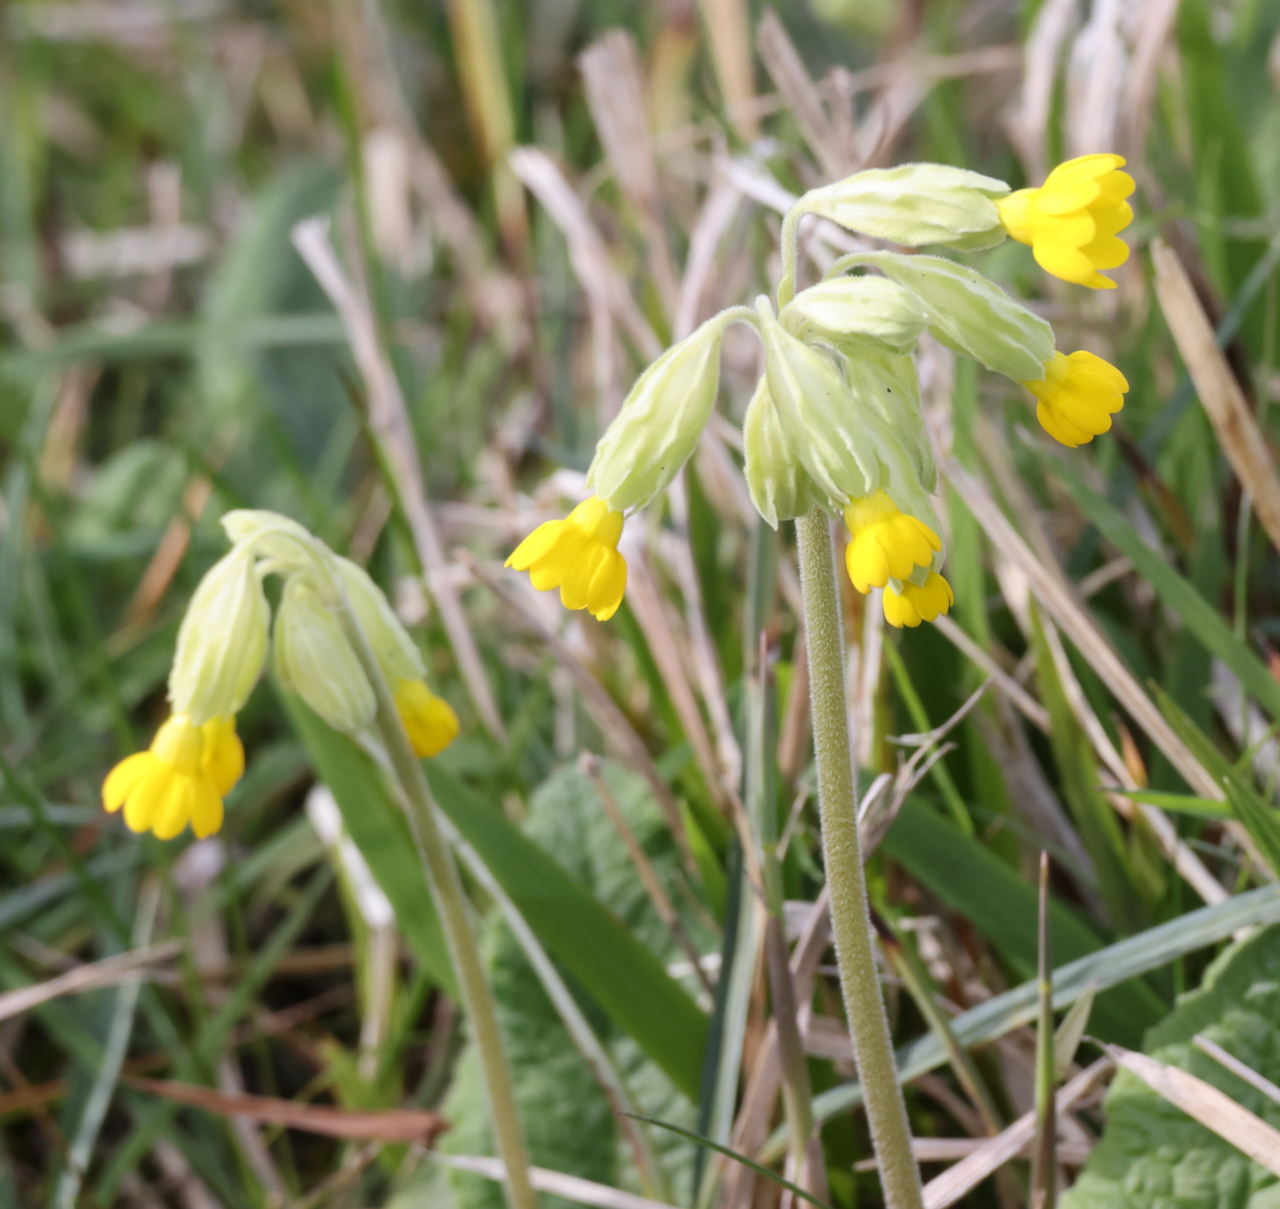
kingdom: Plantae
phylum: Tracheophyta
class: Magnoliopsida
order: Ericales
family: Primulaceae
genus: Primula
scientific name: Primula veris
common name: Cowslip
